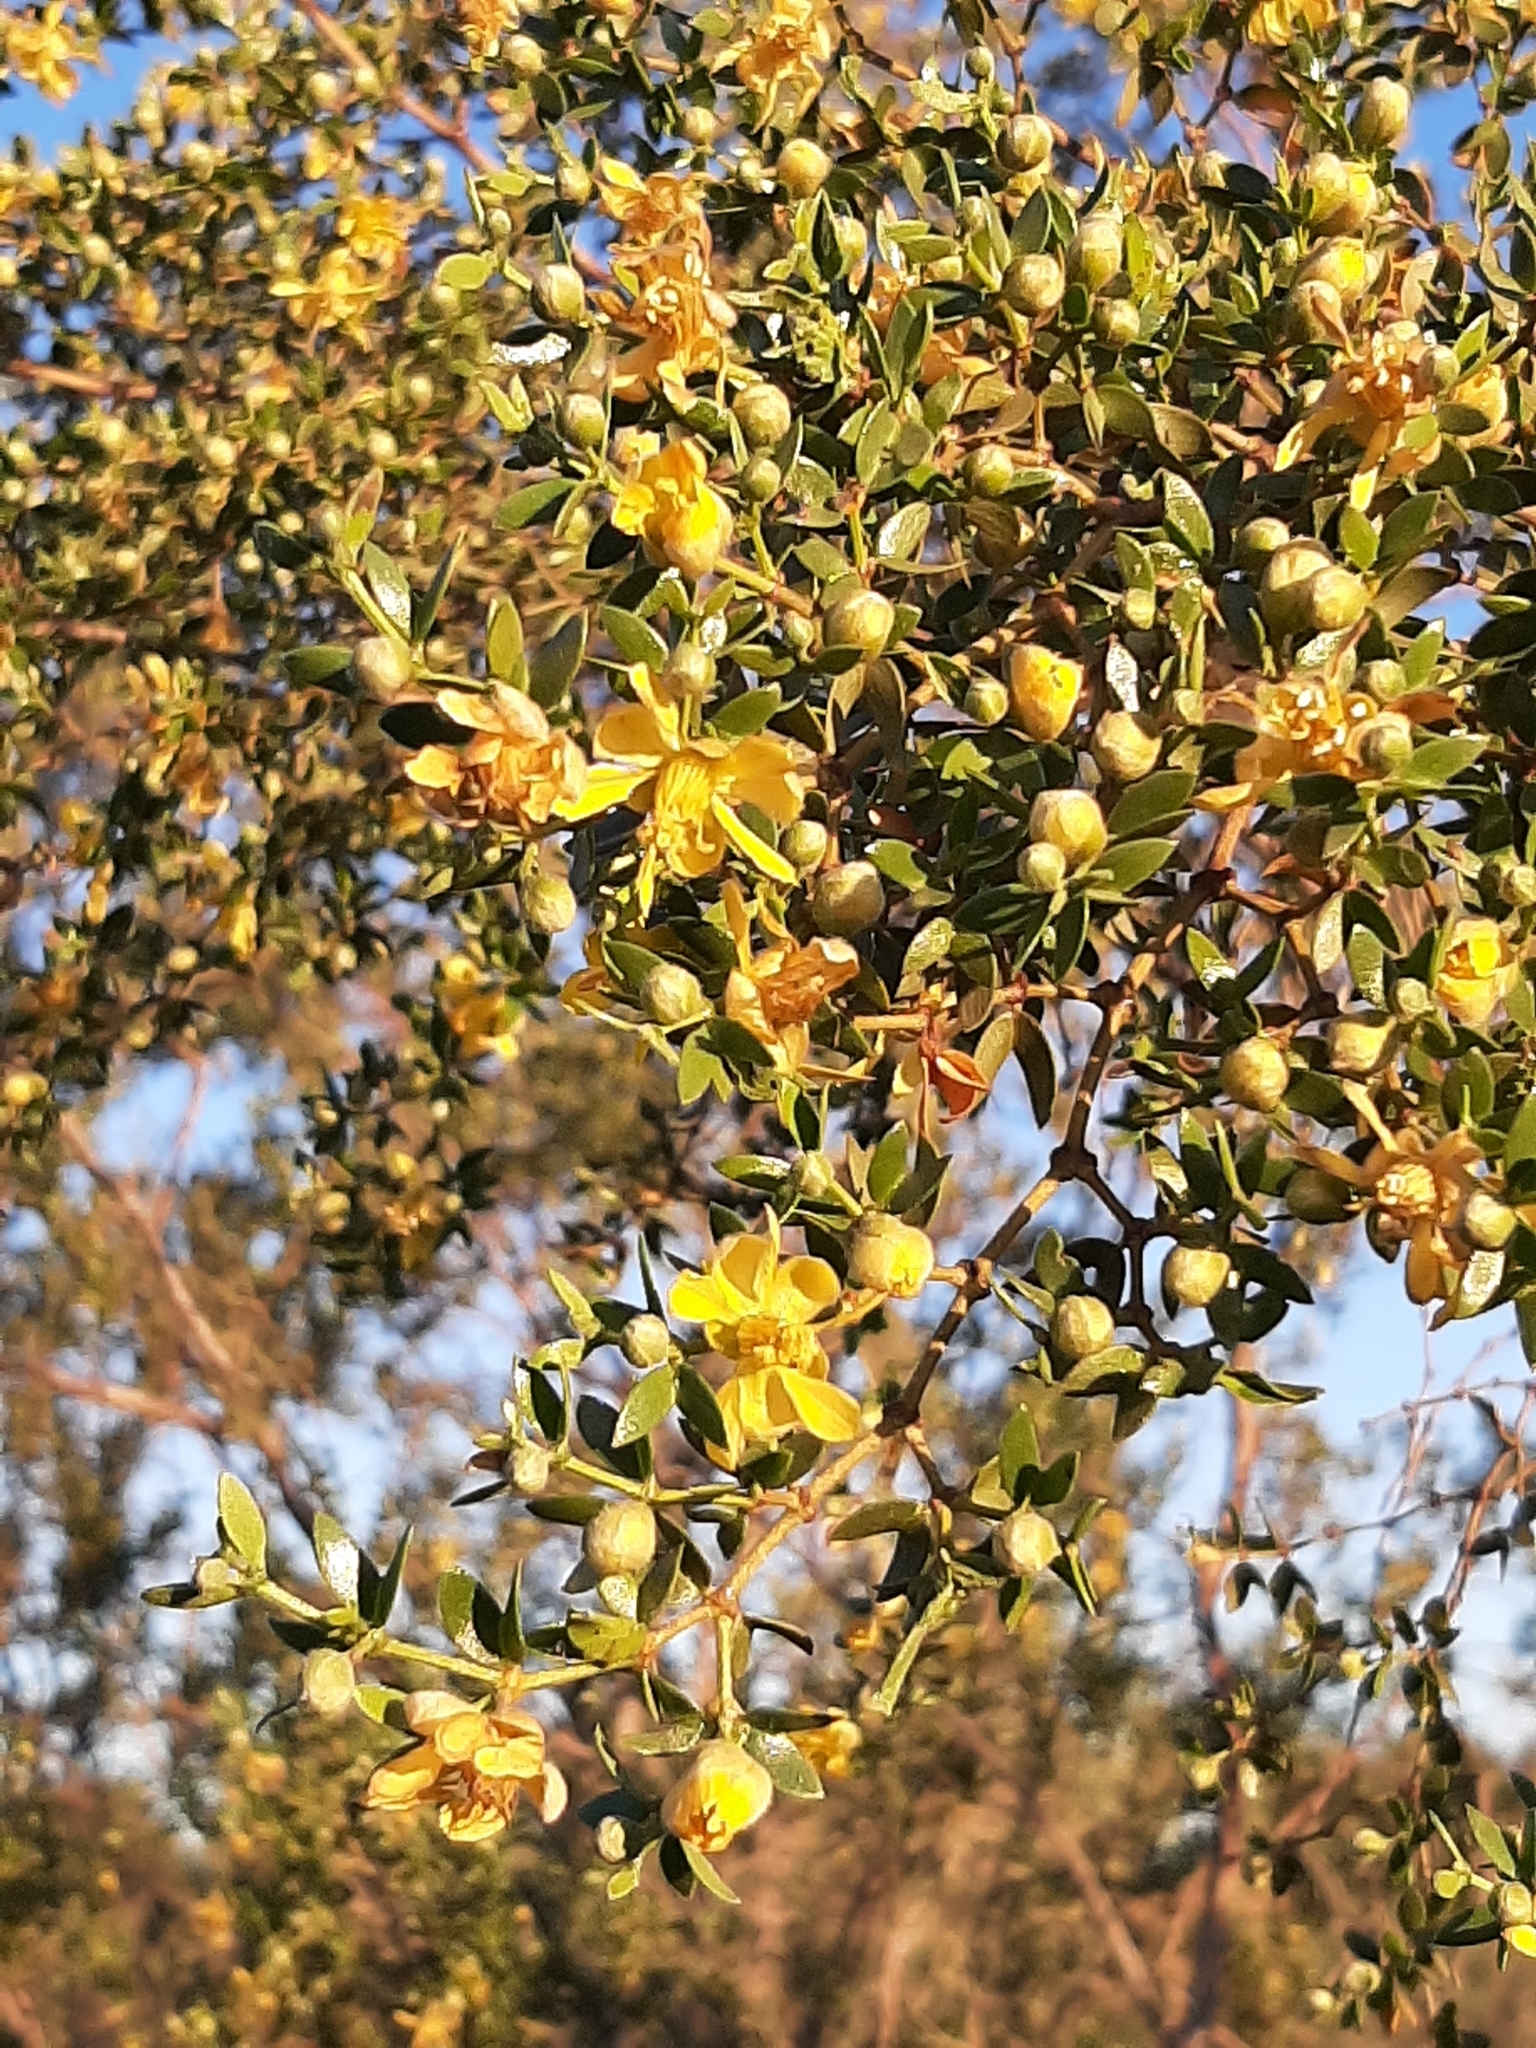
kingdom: Plantae
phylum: Tracheophyta
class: Magnoliopsida
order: Zygophyllales
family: Zygophyllaceae
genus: Larrea
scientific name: Larrea divaricata
